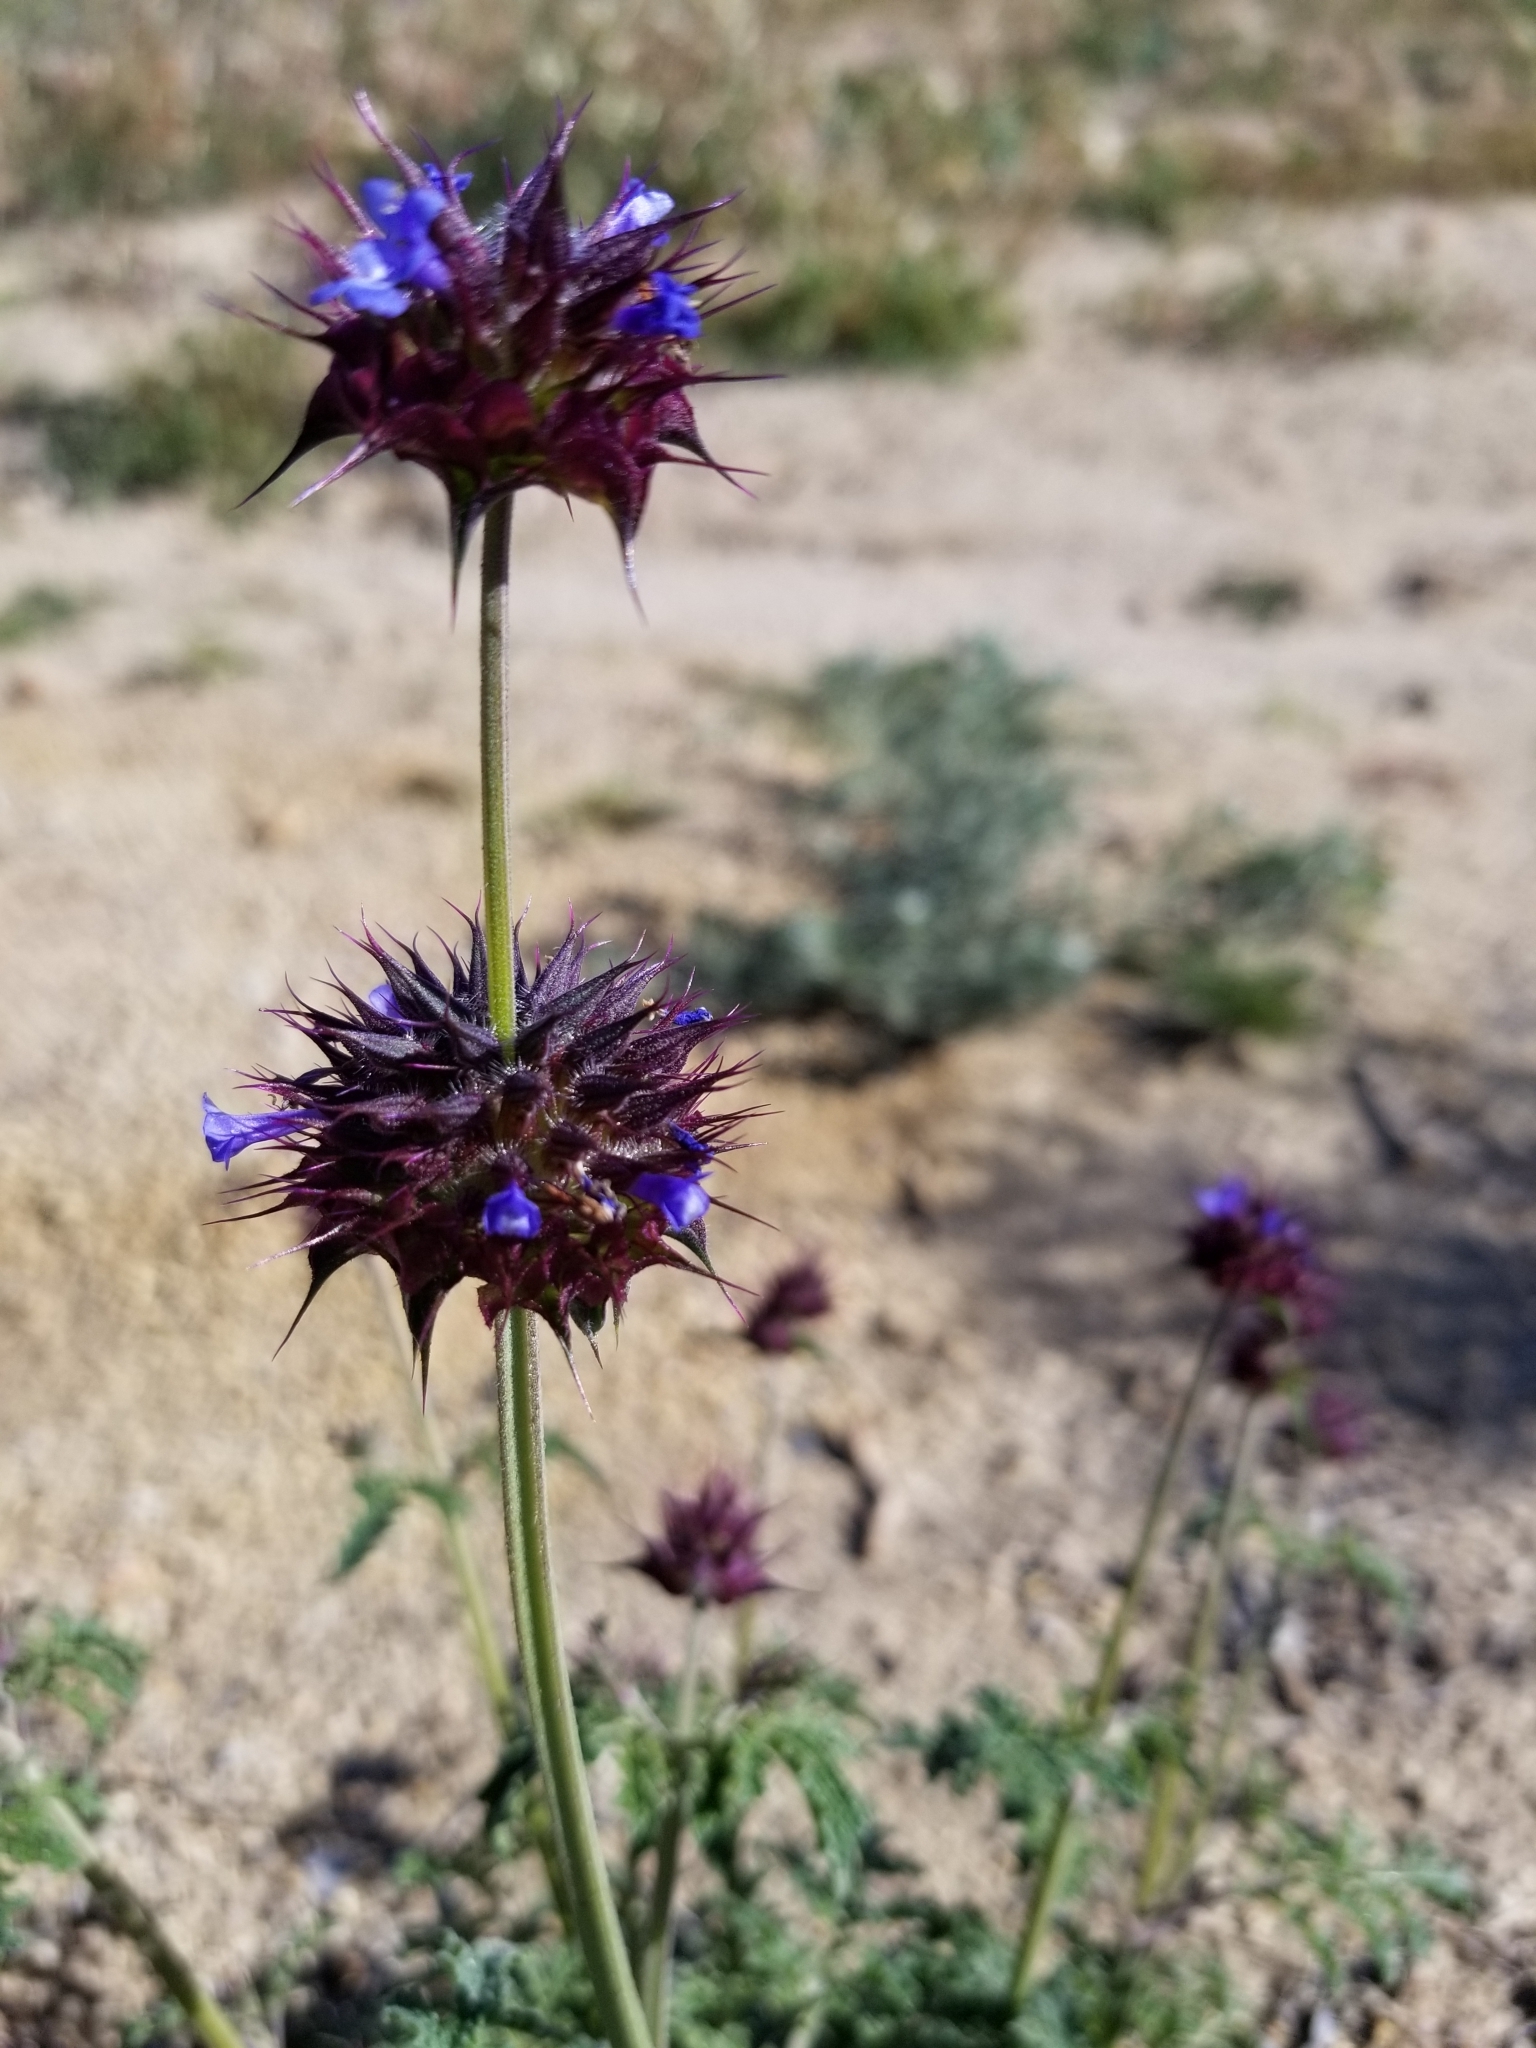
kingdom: Plantae
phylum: Tracheophyta
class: Magnoliopsida
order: Lamiales
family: Lamiaceae
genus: Salvia
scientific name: Salvia columbariae
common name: Chia
